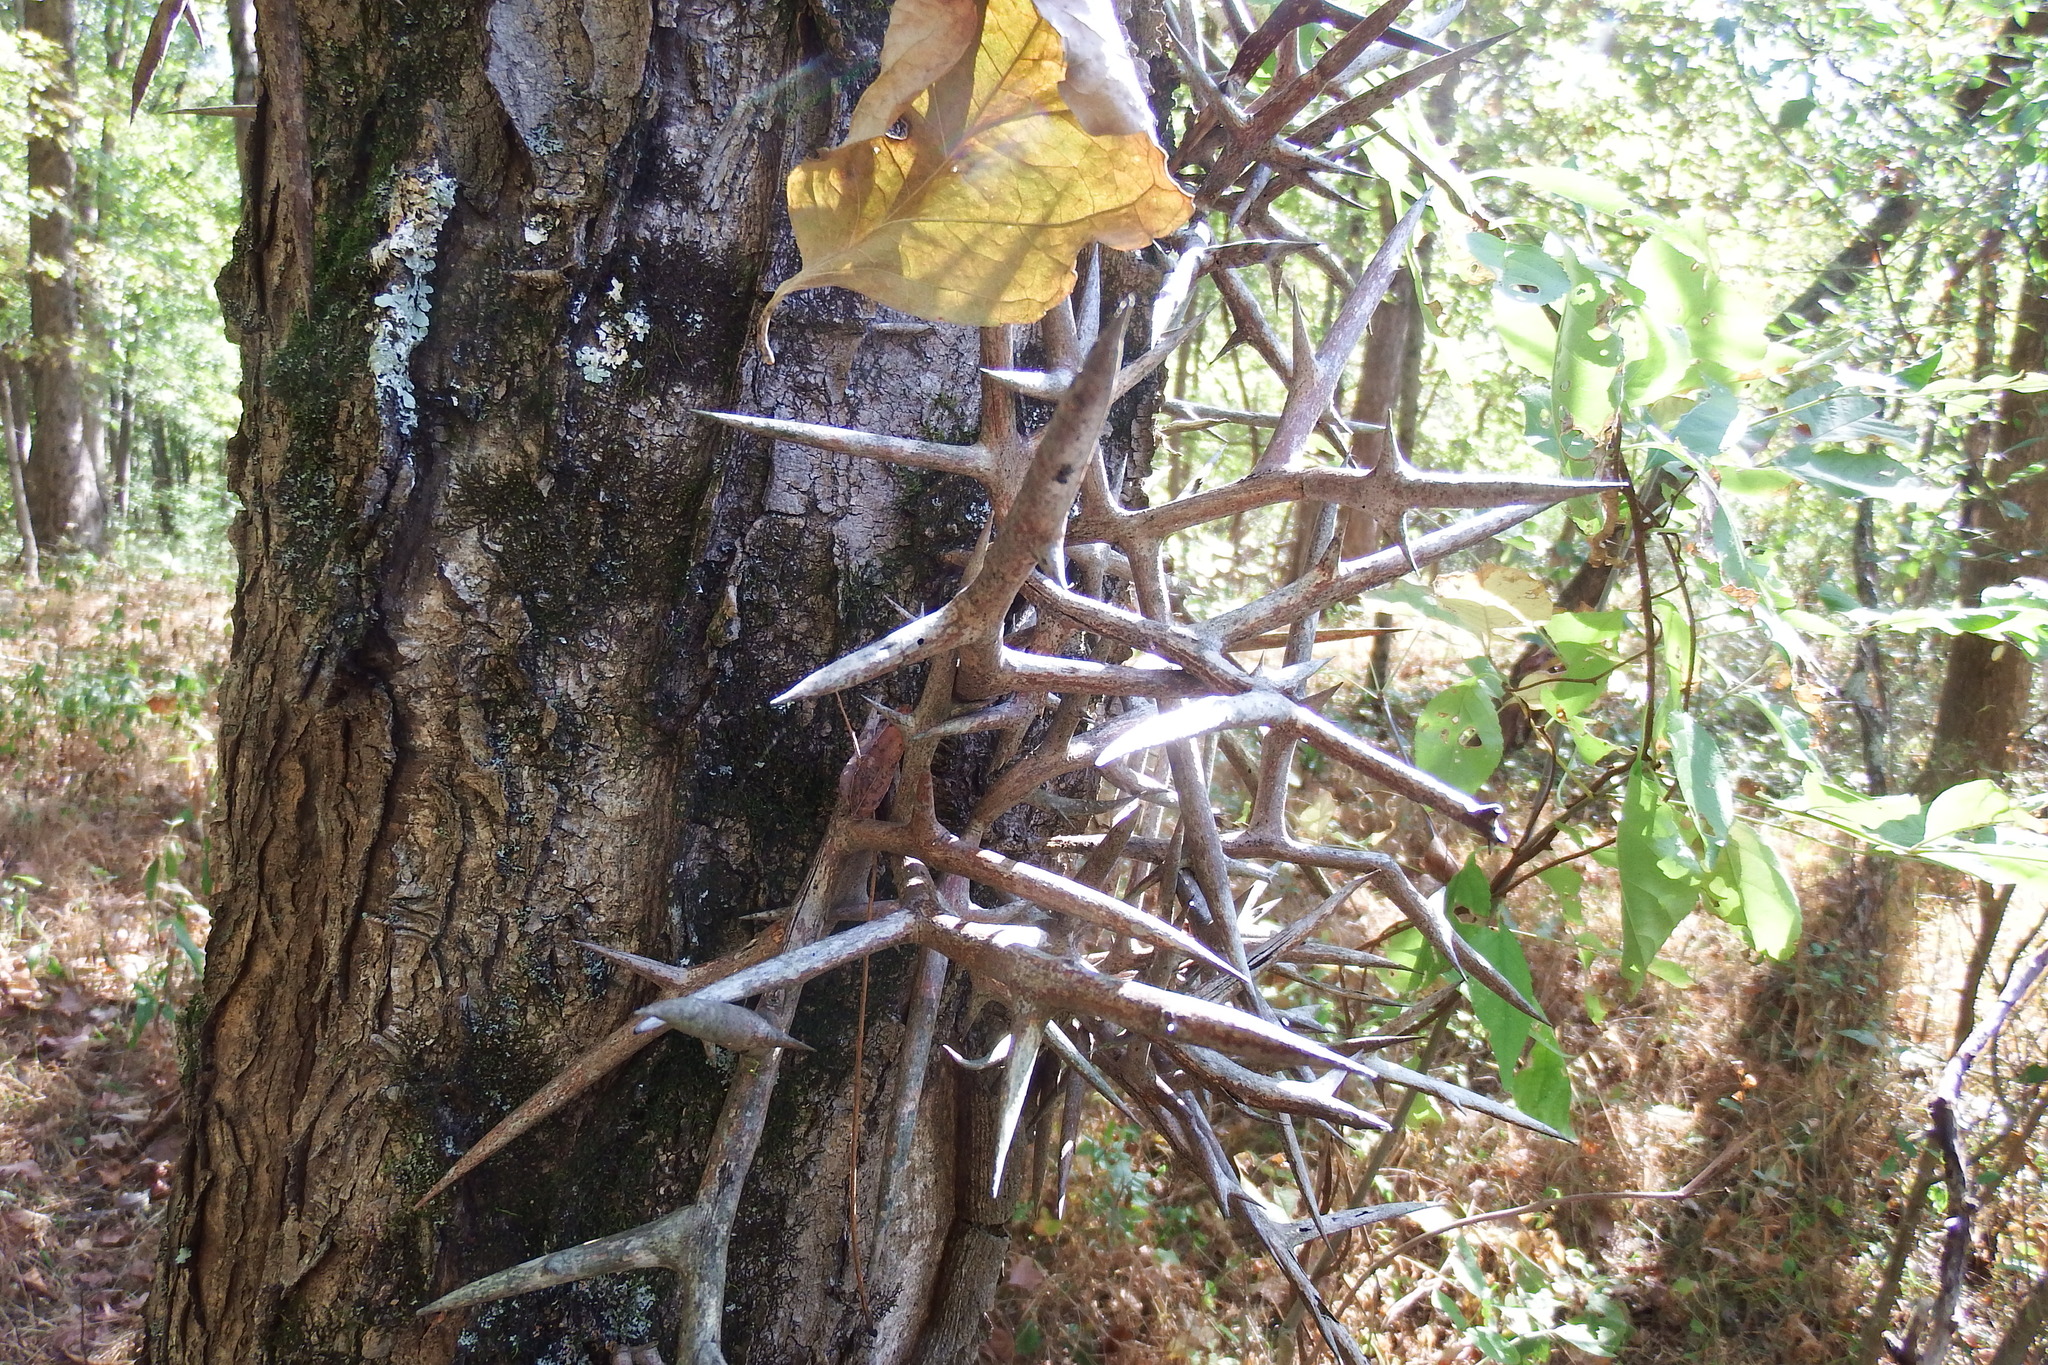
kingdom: Plantae
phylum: Tracheophyta
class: Magnoliopsida
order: Fabales
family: Fabaceae
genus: Gleditsia
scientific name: Gleditsia triacanthos
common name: Common honeylocust
